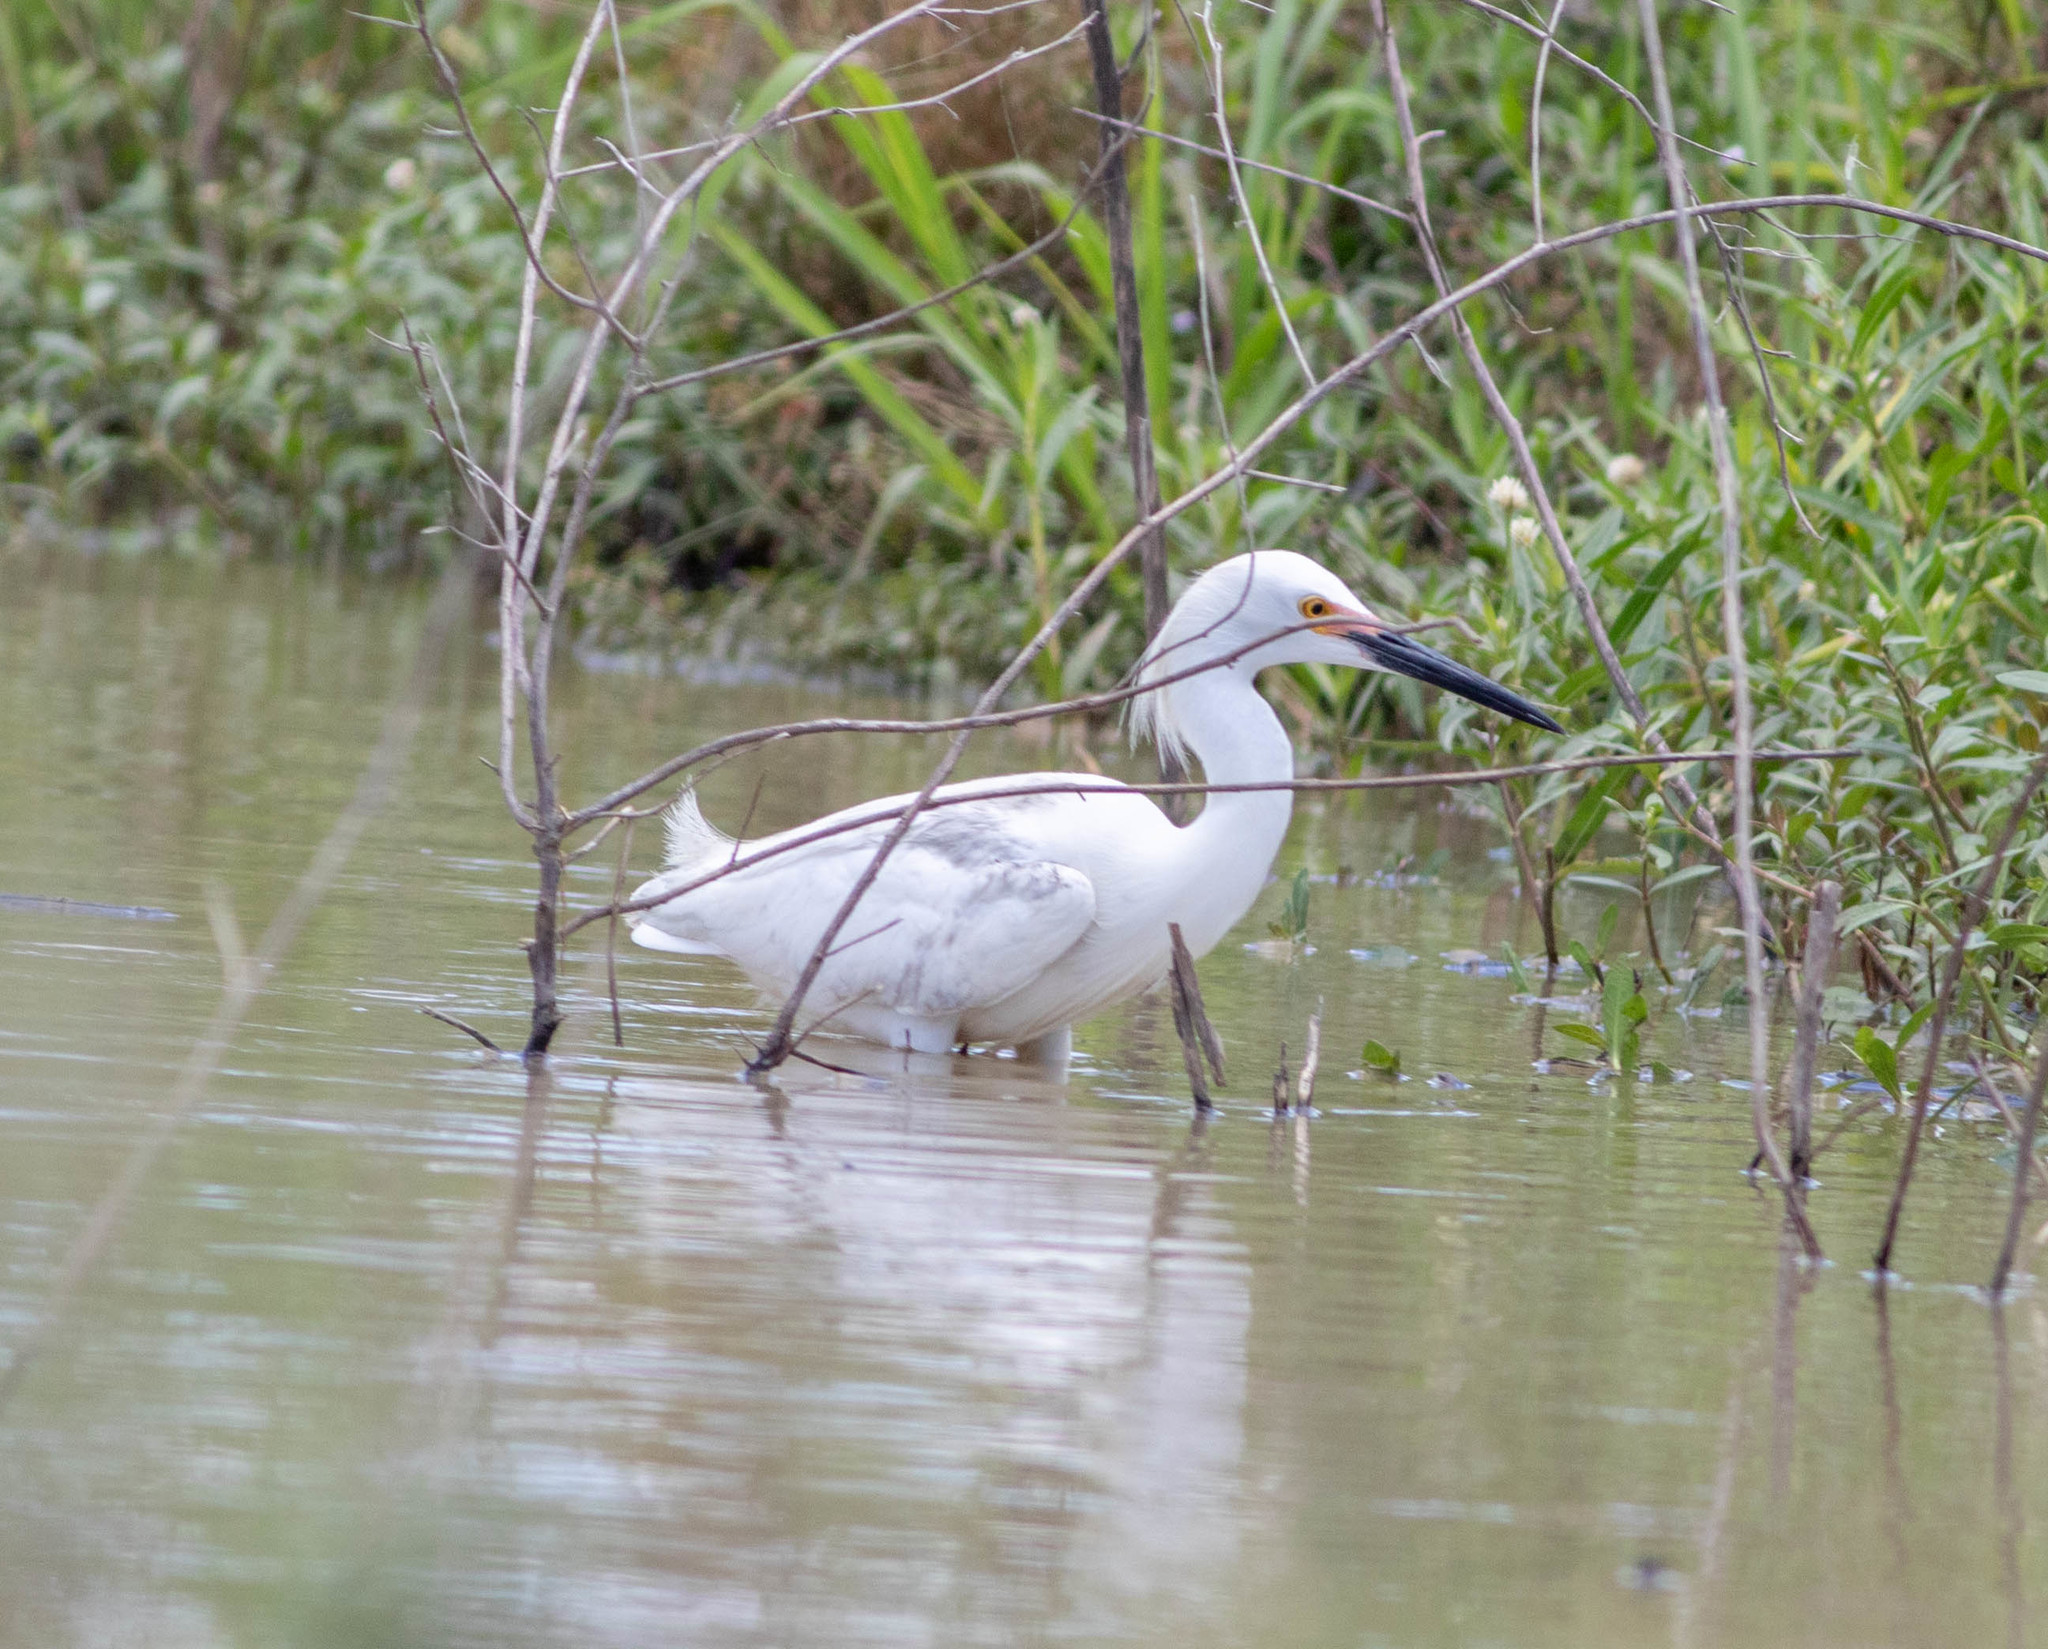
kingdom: Animalia
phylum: Chordata
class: Aves
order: Pelecaniformes
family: Ardeidae
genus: Egretta
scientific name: Egretta thula
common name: Snowy egret
